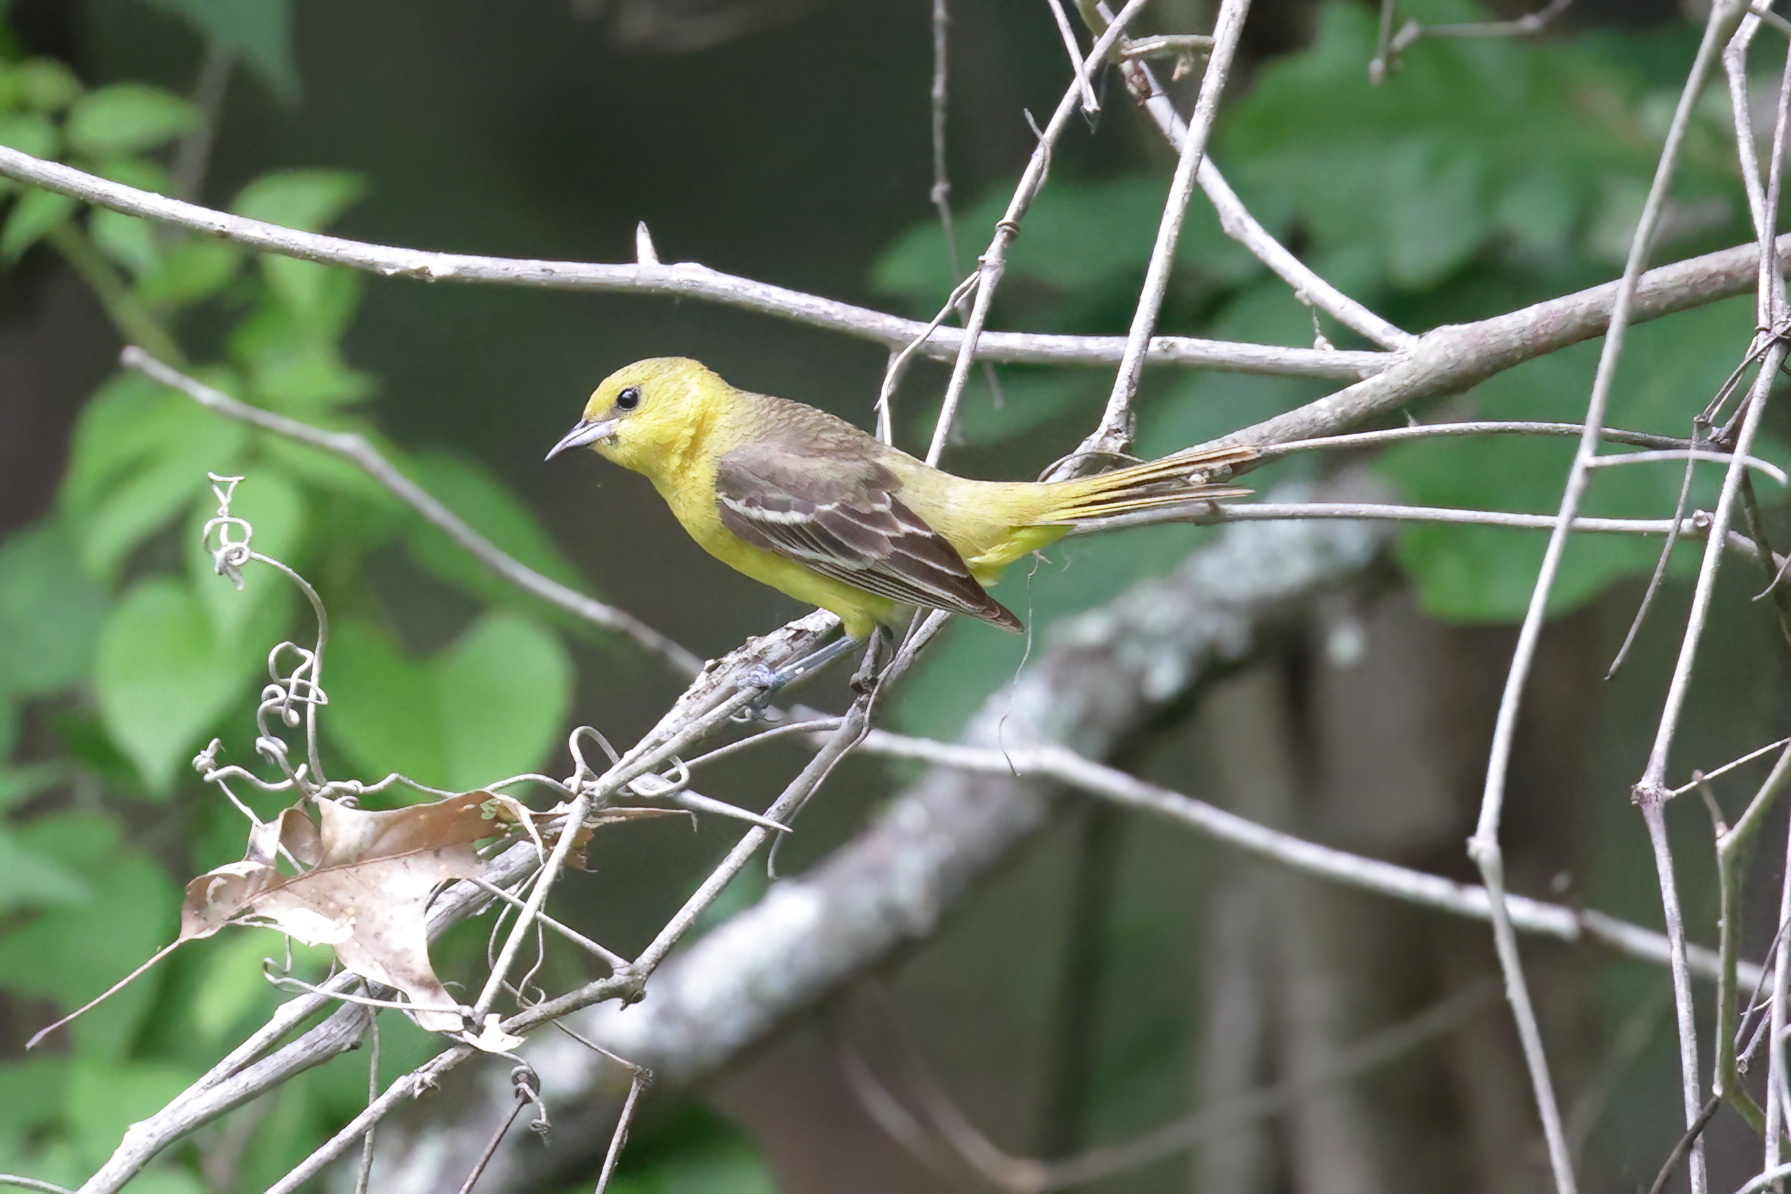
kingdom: Animalia
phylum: Chordata
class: Aves
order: Passeriformes
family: Icteridae
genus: Icterus
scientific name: Icterus spurius
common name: Orchard oriole
